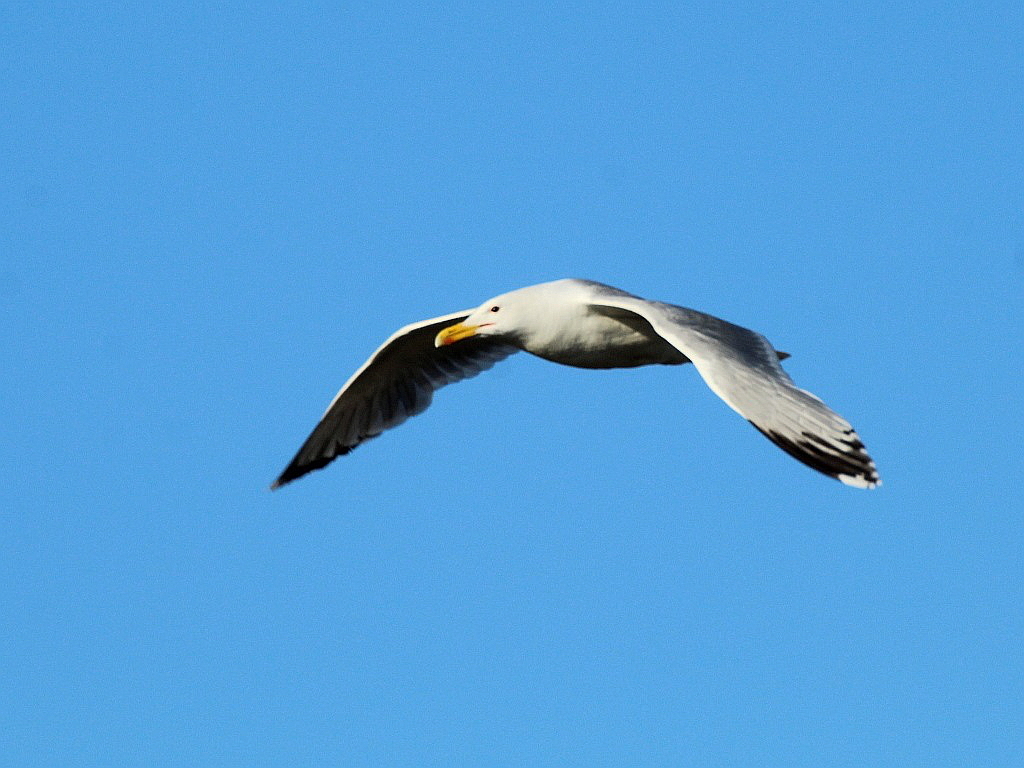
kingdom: Animalia
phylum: Chordata
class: Aves
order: Charadriiformes
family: Laridae
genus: Larus
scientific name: Larus cachinnans
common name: Caspian gull
